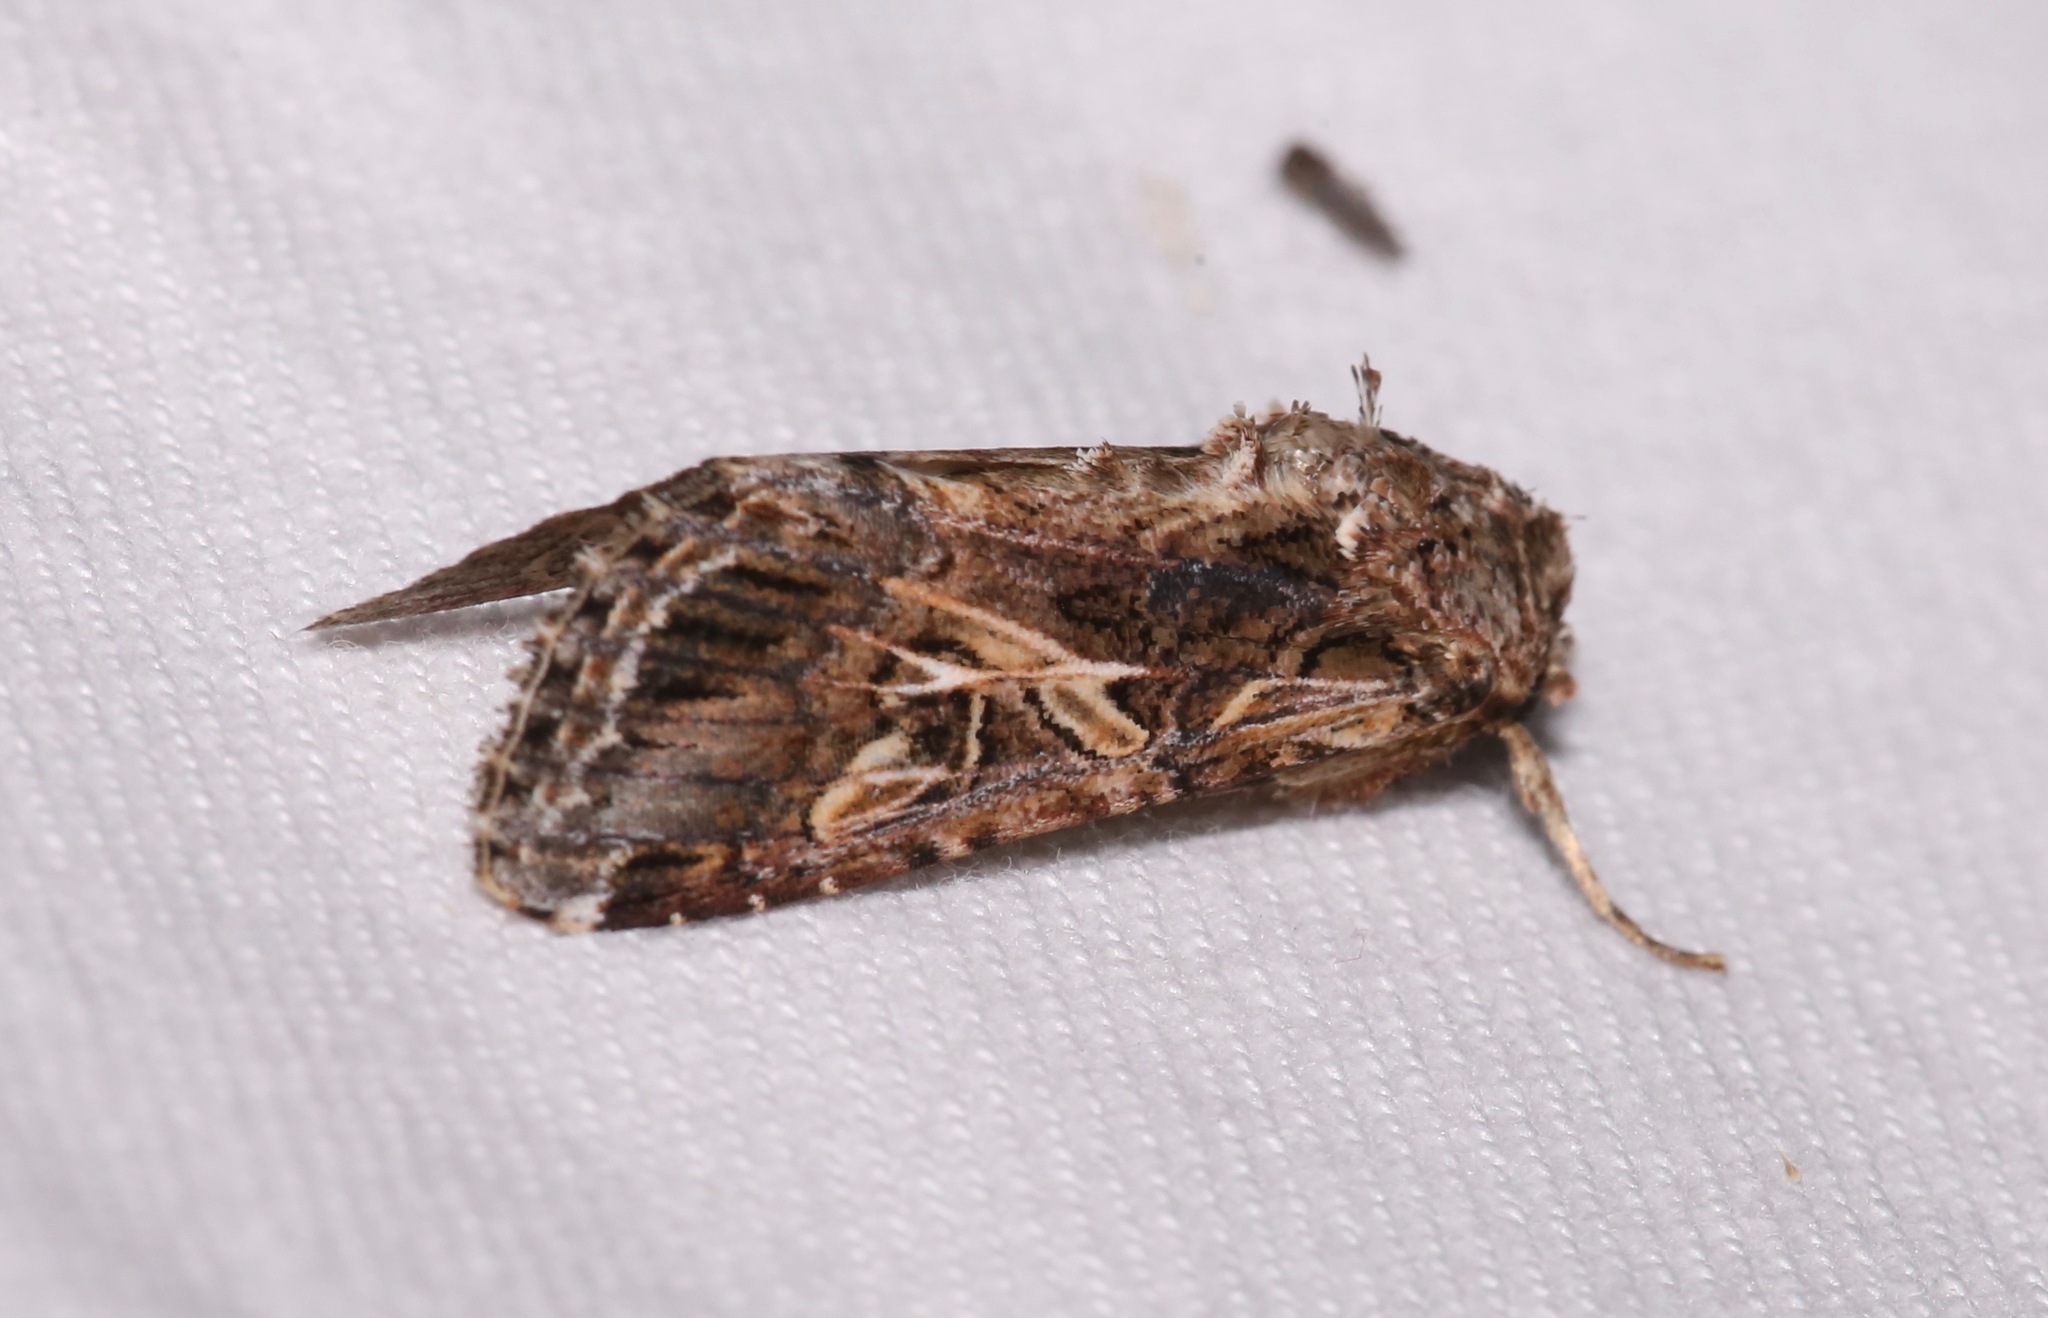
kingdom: Animalia
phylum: Arthropoda
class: Insecta
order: Lepidoptera
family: Noctuidae
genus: Spodoptera
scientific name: Spodoptera ornithogalli
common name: Yellow-striped armyworm
